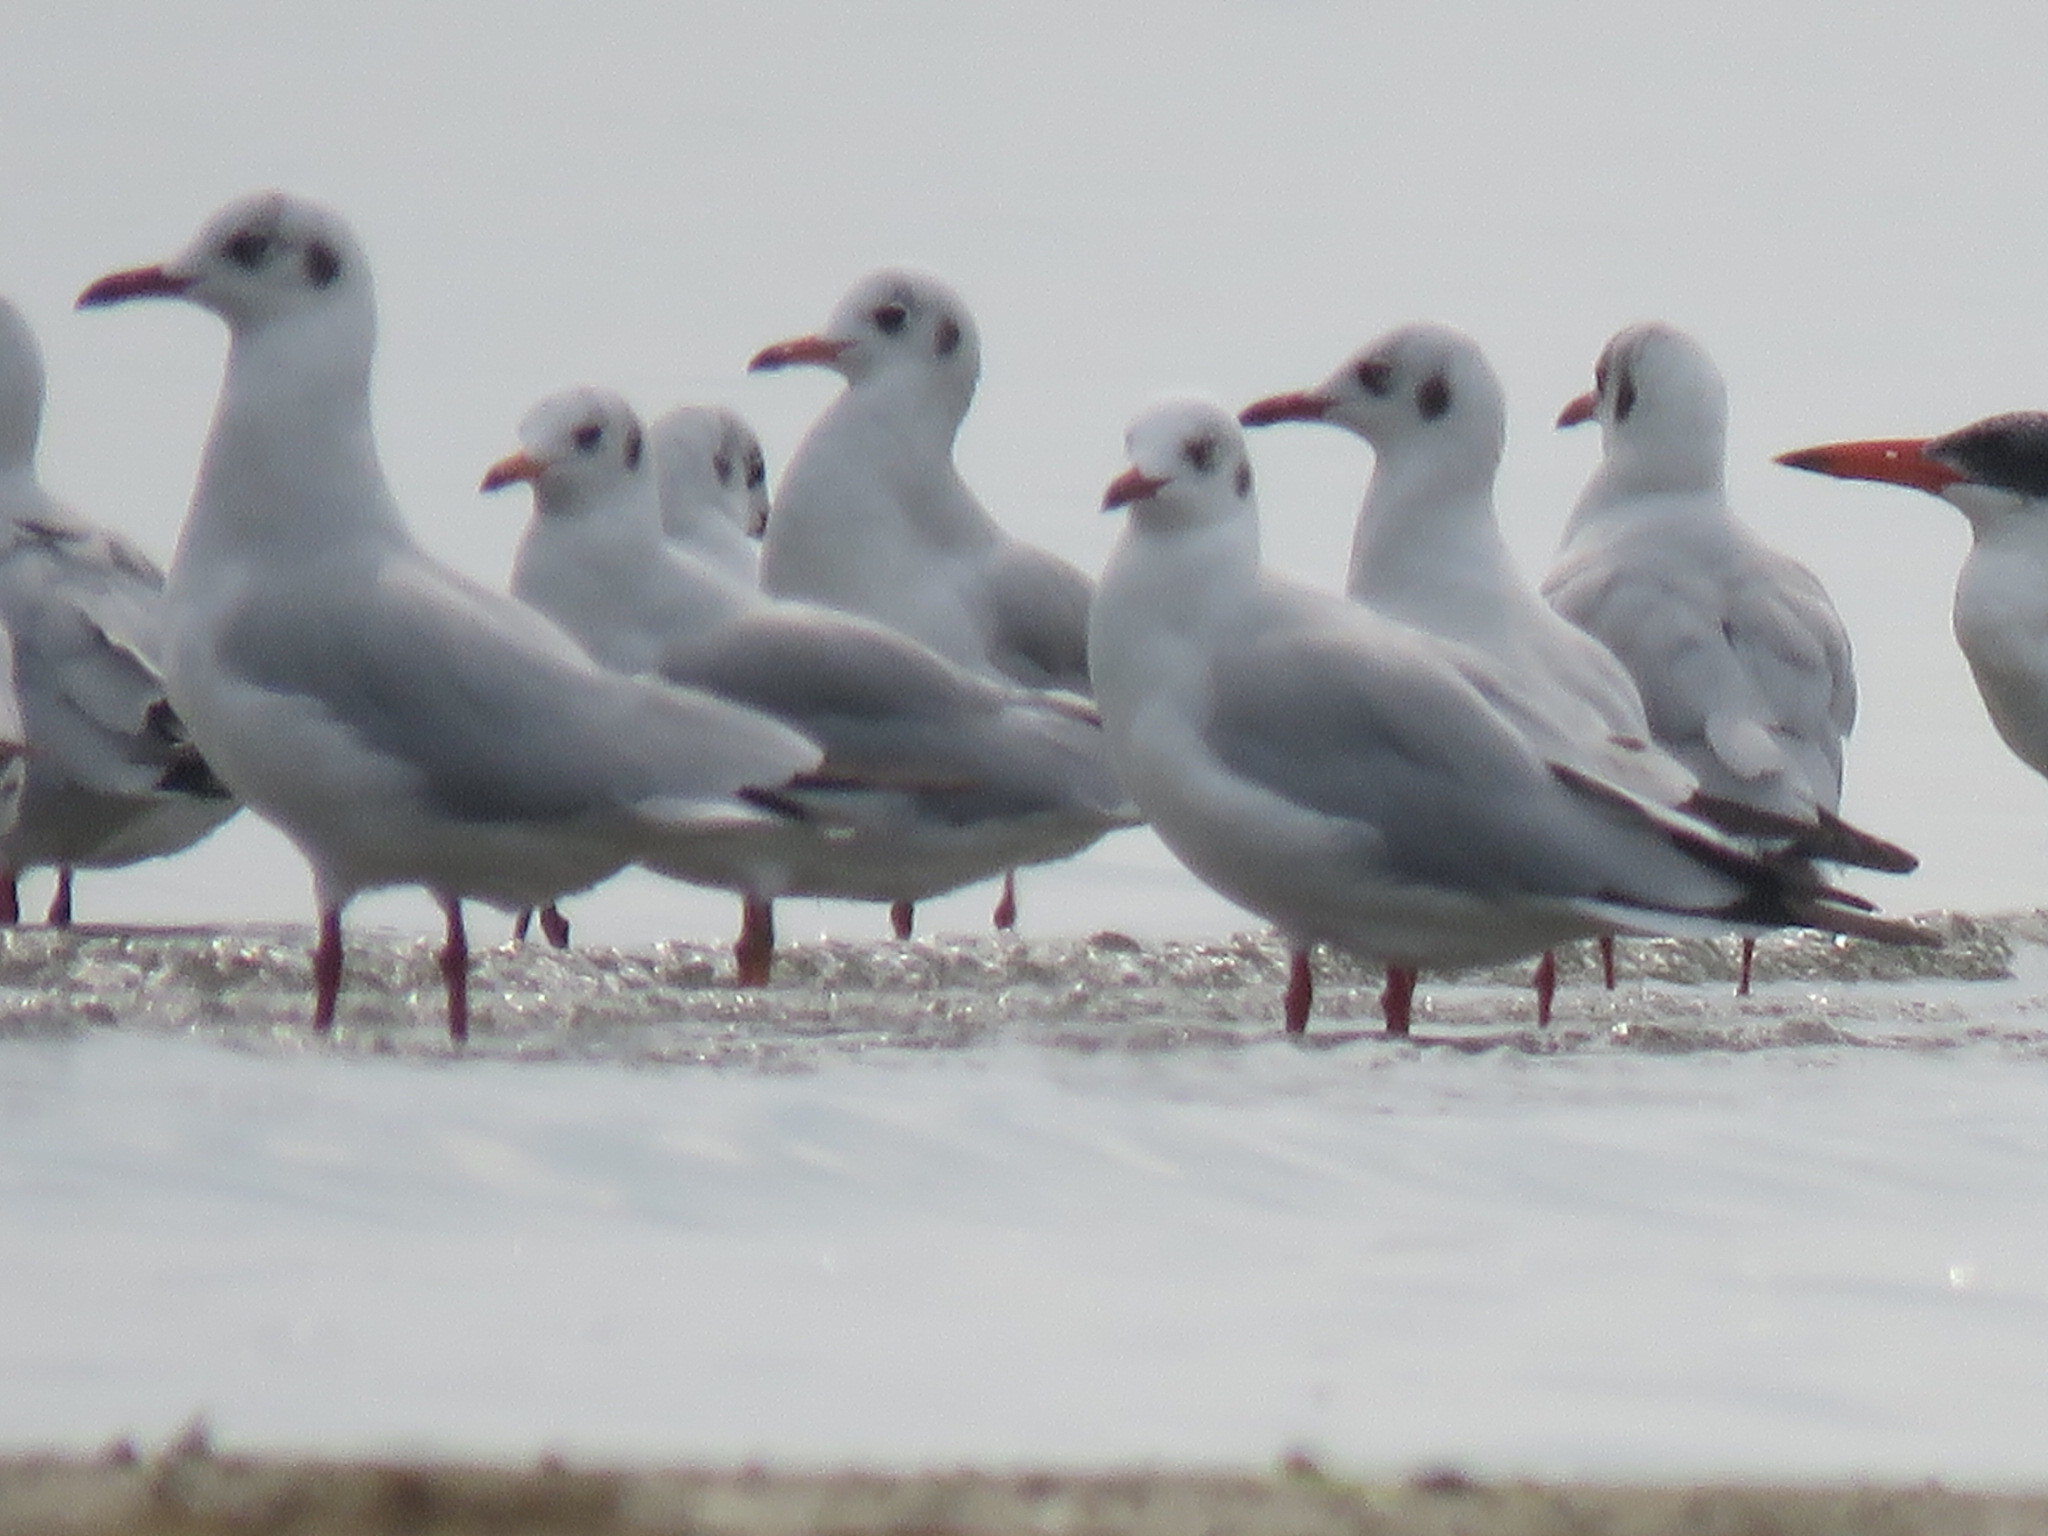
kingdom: Animalia
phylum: Chordata
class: Aves
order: Charadriiformes
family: Laridae
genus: Chroicocephalus
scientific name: Chroicocephalus brunnicephalus
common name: Brown-headed gull
